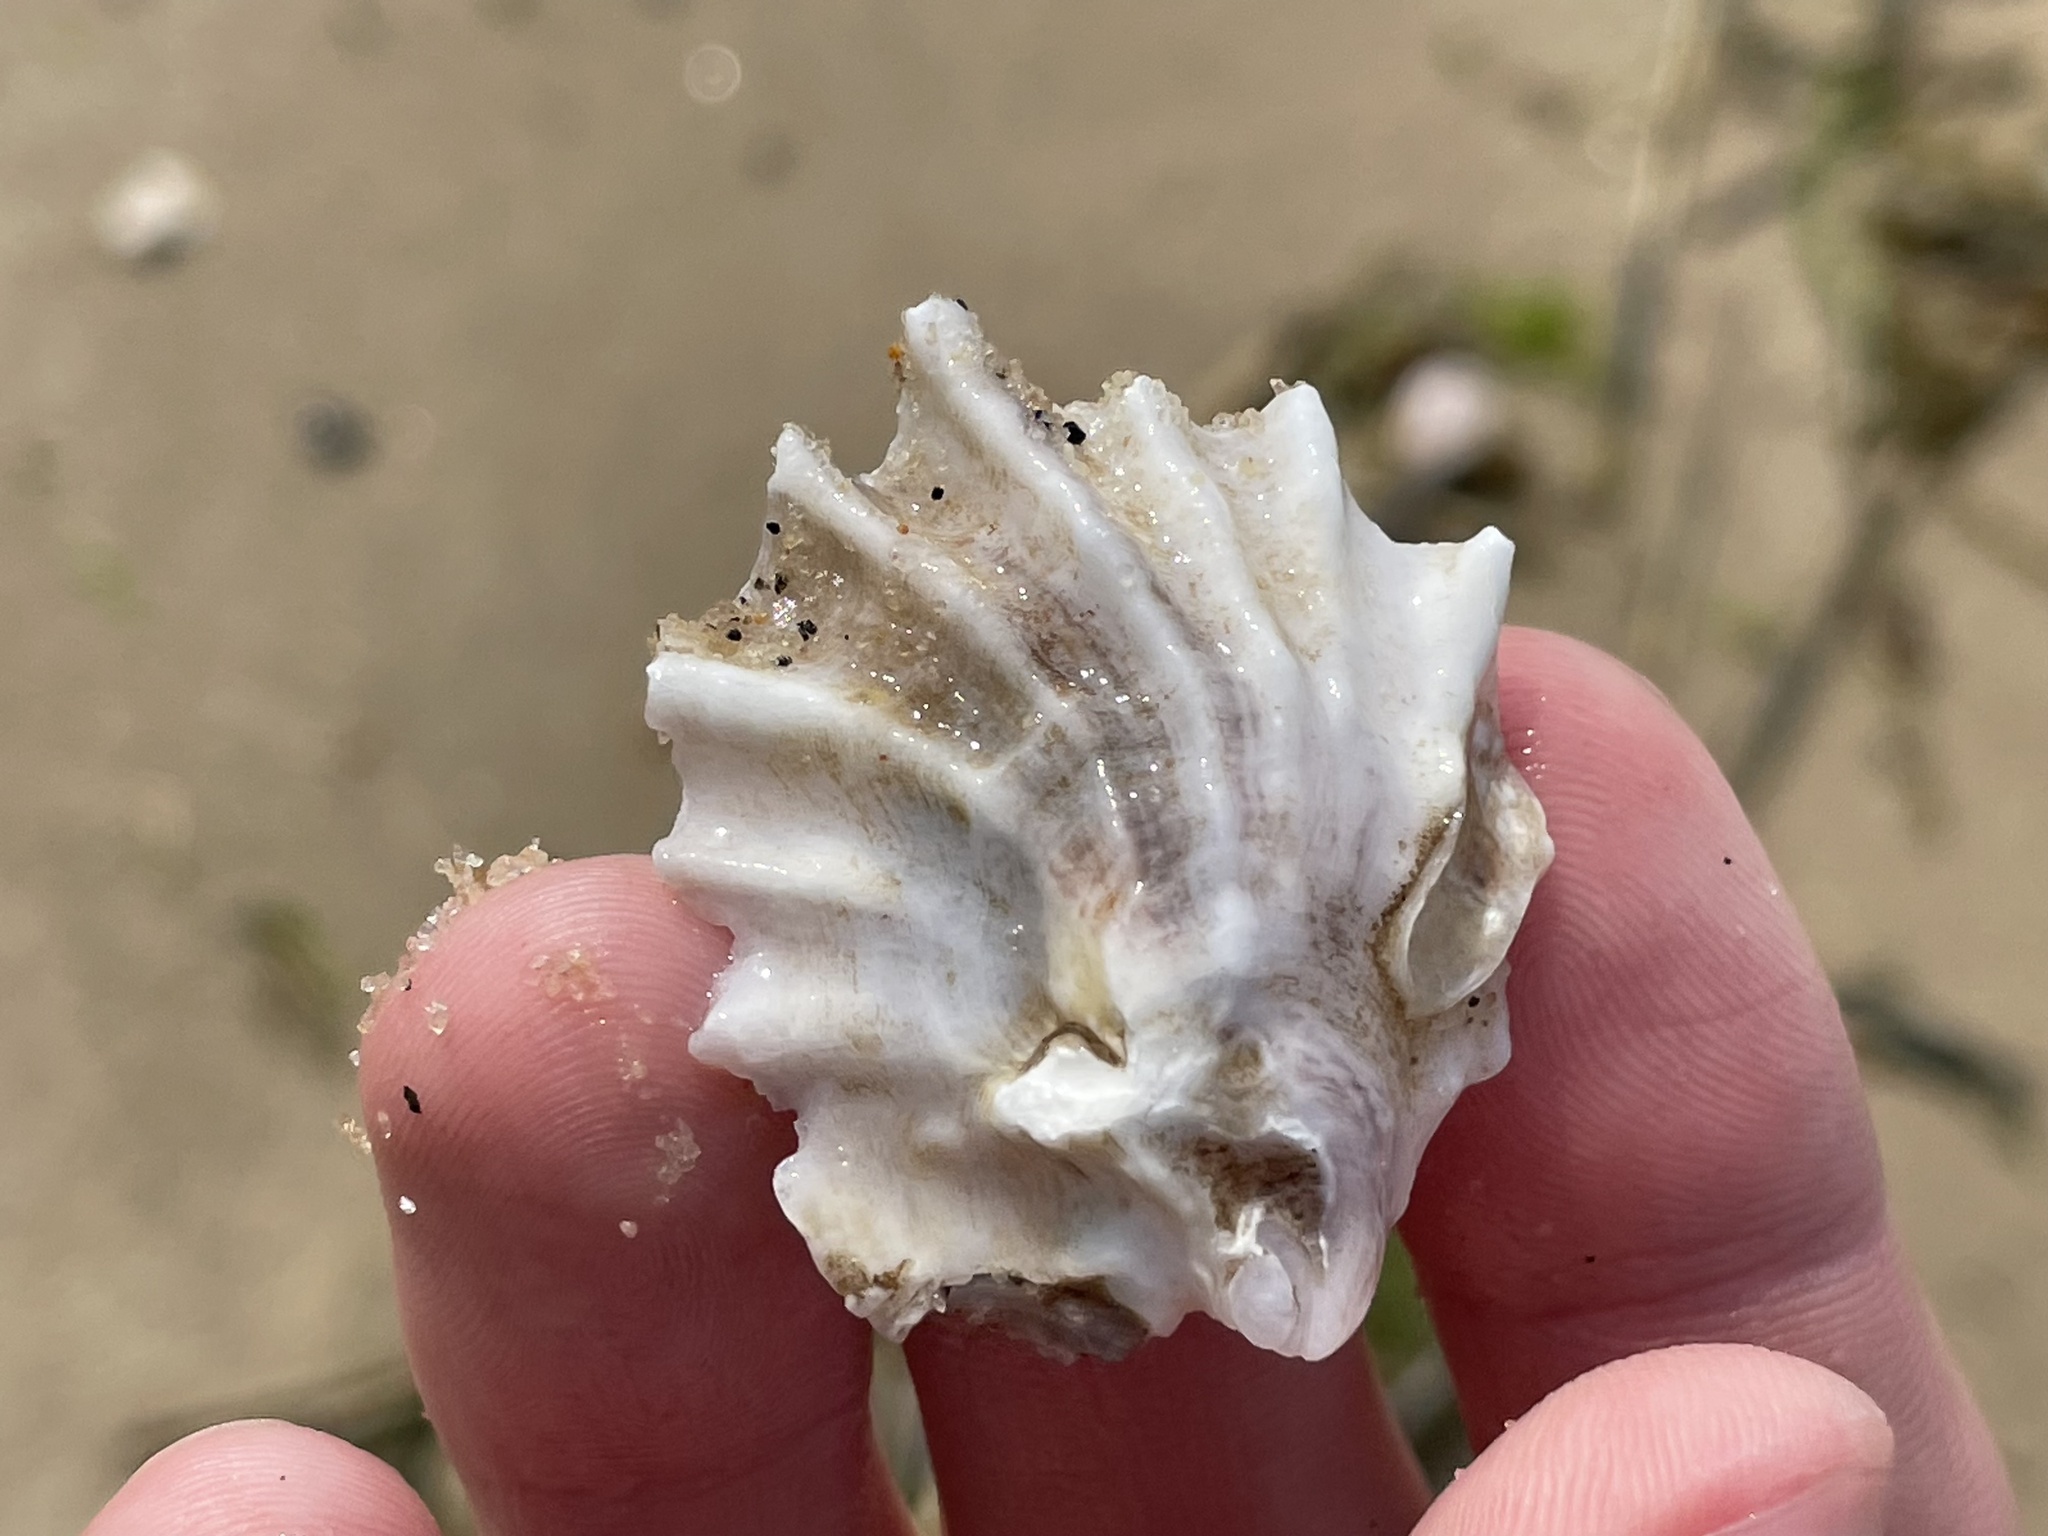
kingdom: Animalia
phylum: Mollusca
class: Bivalvia
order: Ostreida
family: Ostreidae
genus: Crassostrea
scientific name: Crassostrea virginica
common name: American oyster
